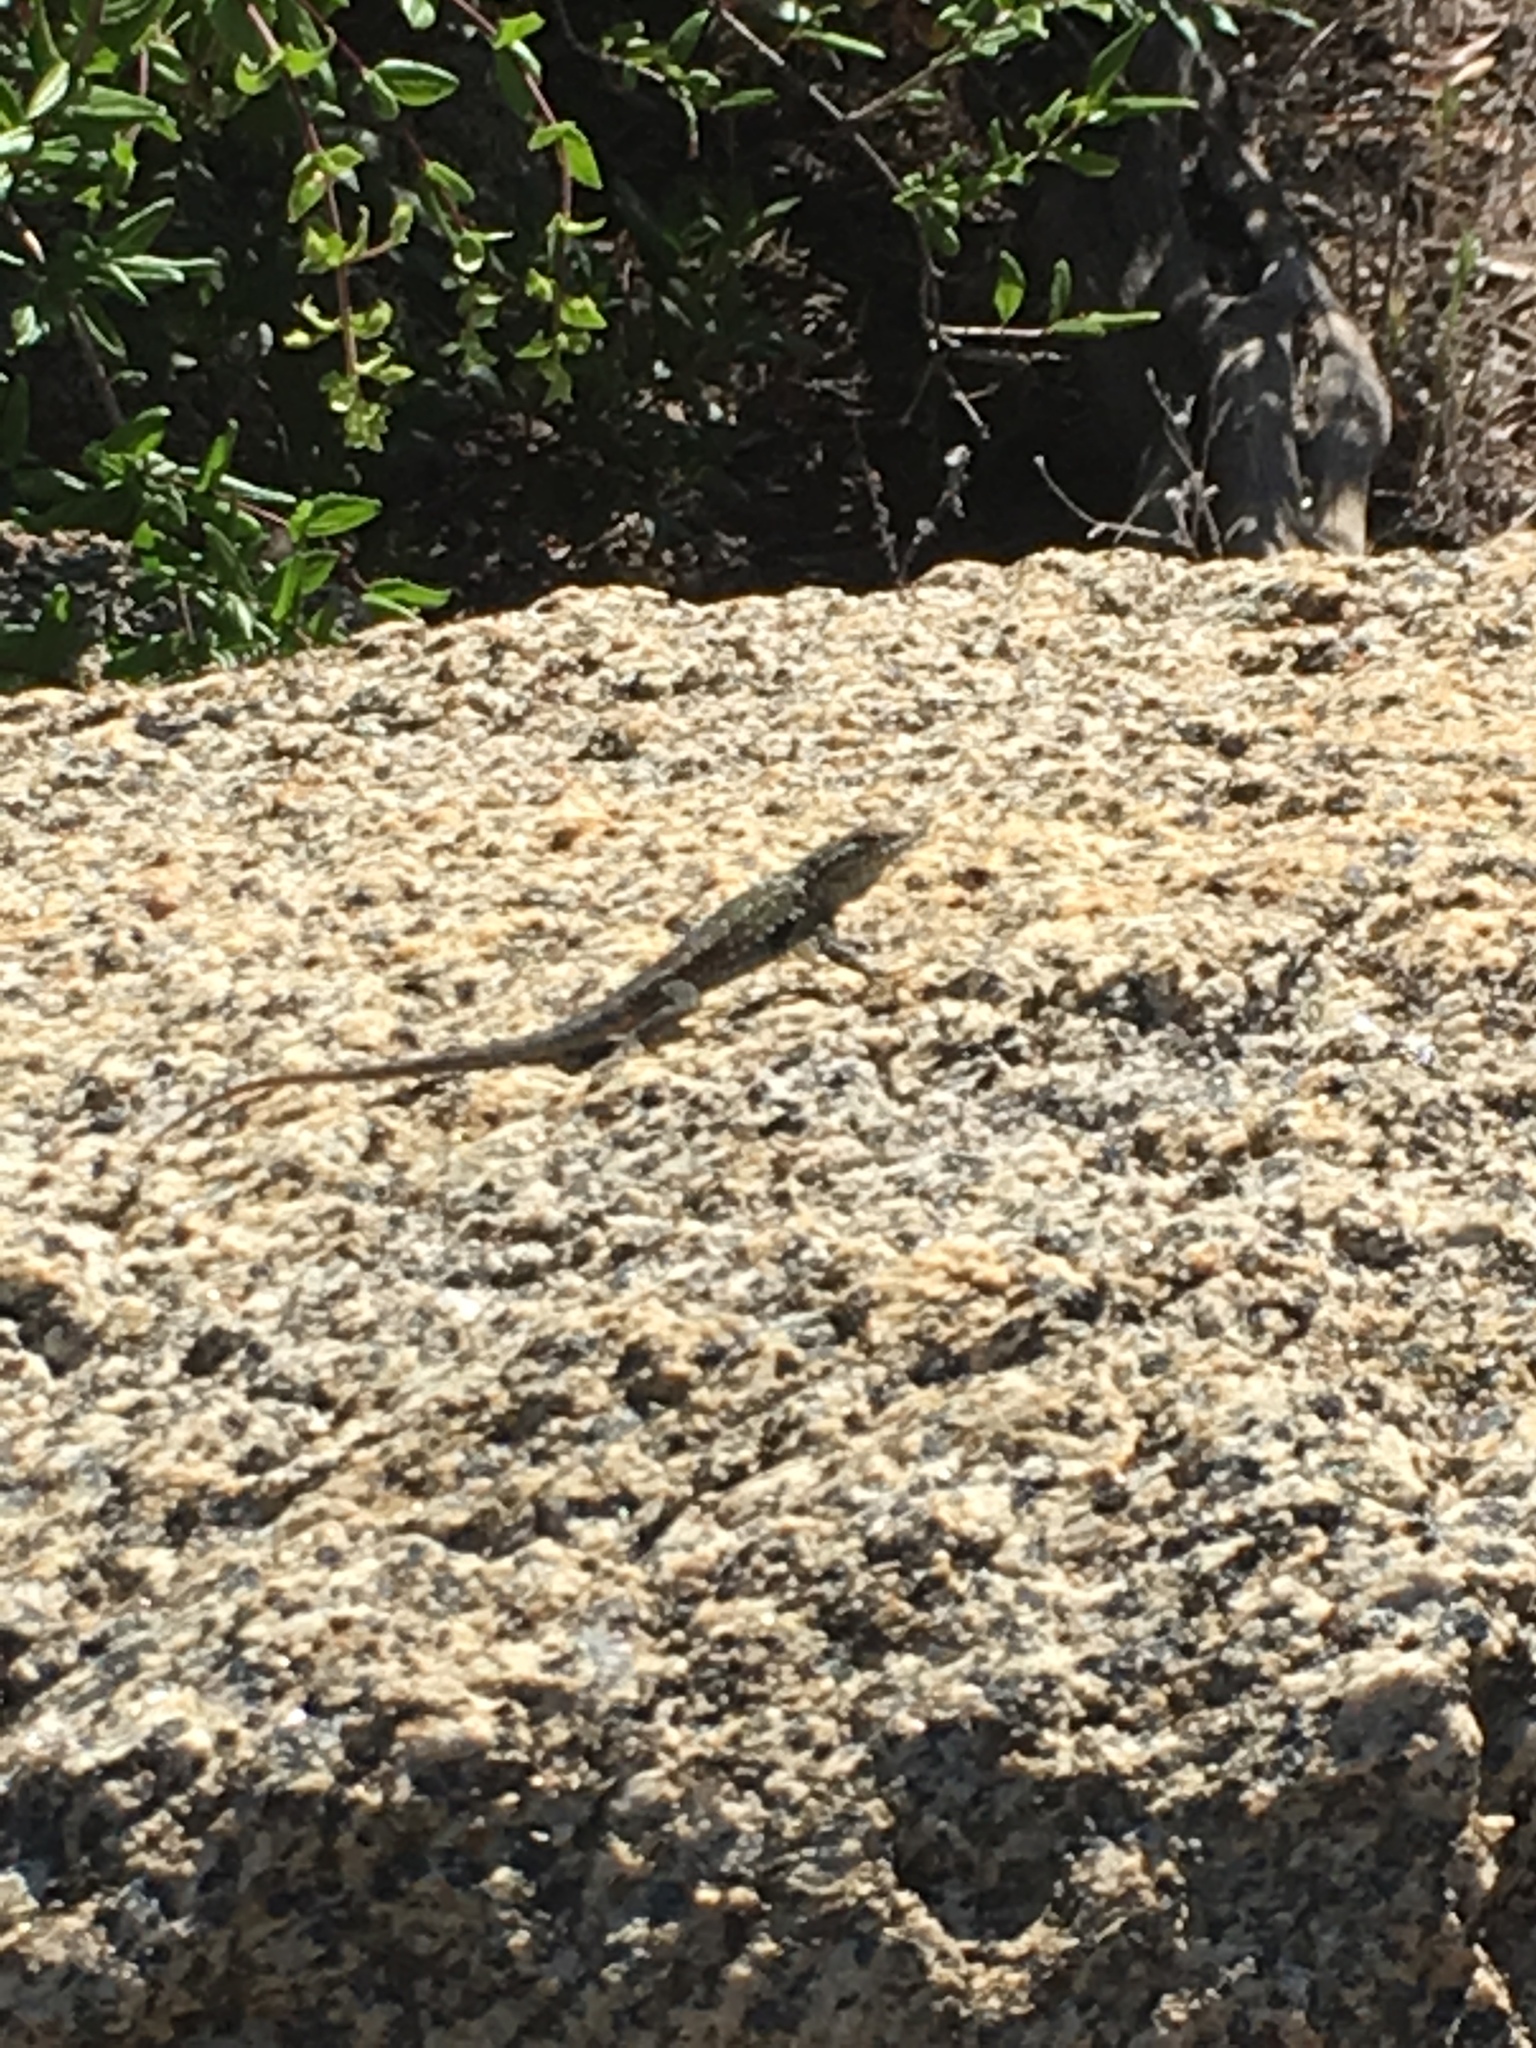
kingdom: Animalia
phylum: Chordata
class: Squamata
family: Phrynosomatidae
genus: Uta
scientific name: Uta stansburiana
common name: Side-blotched lizard
